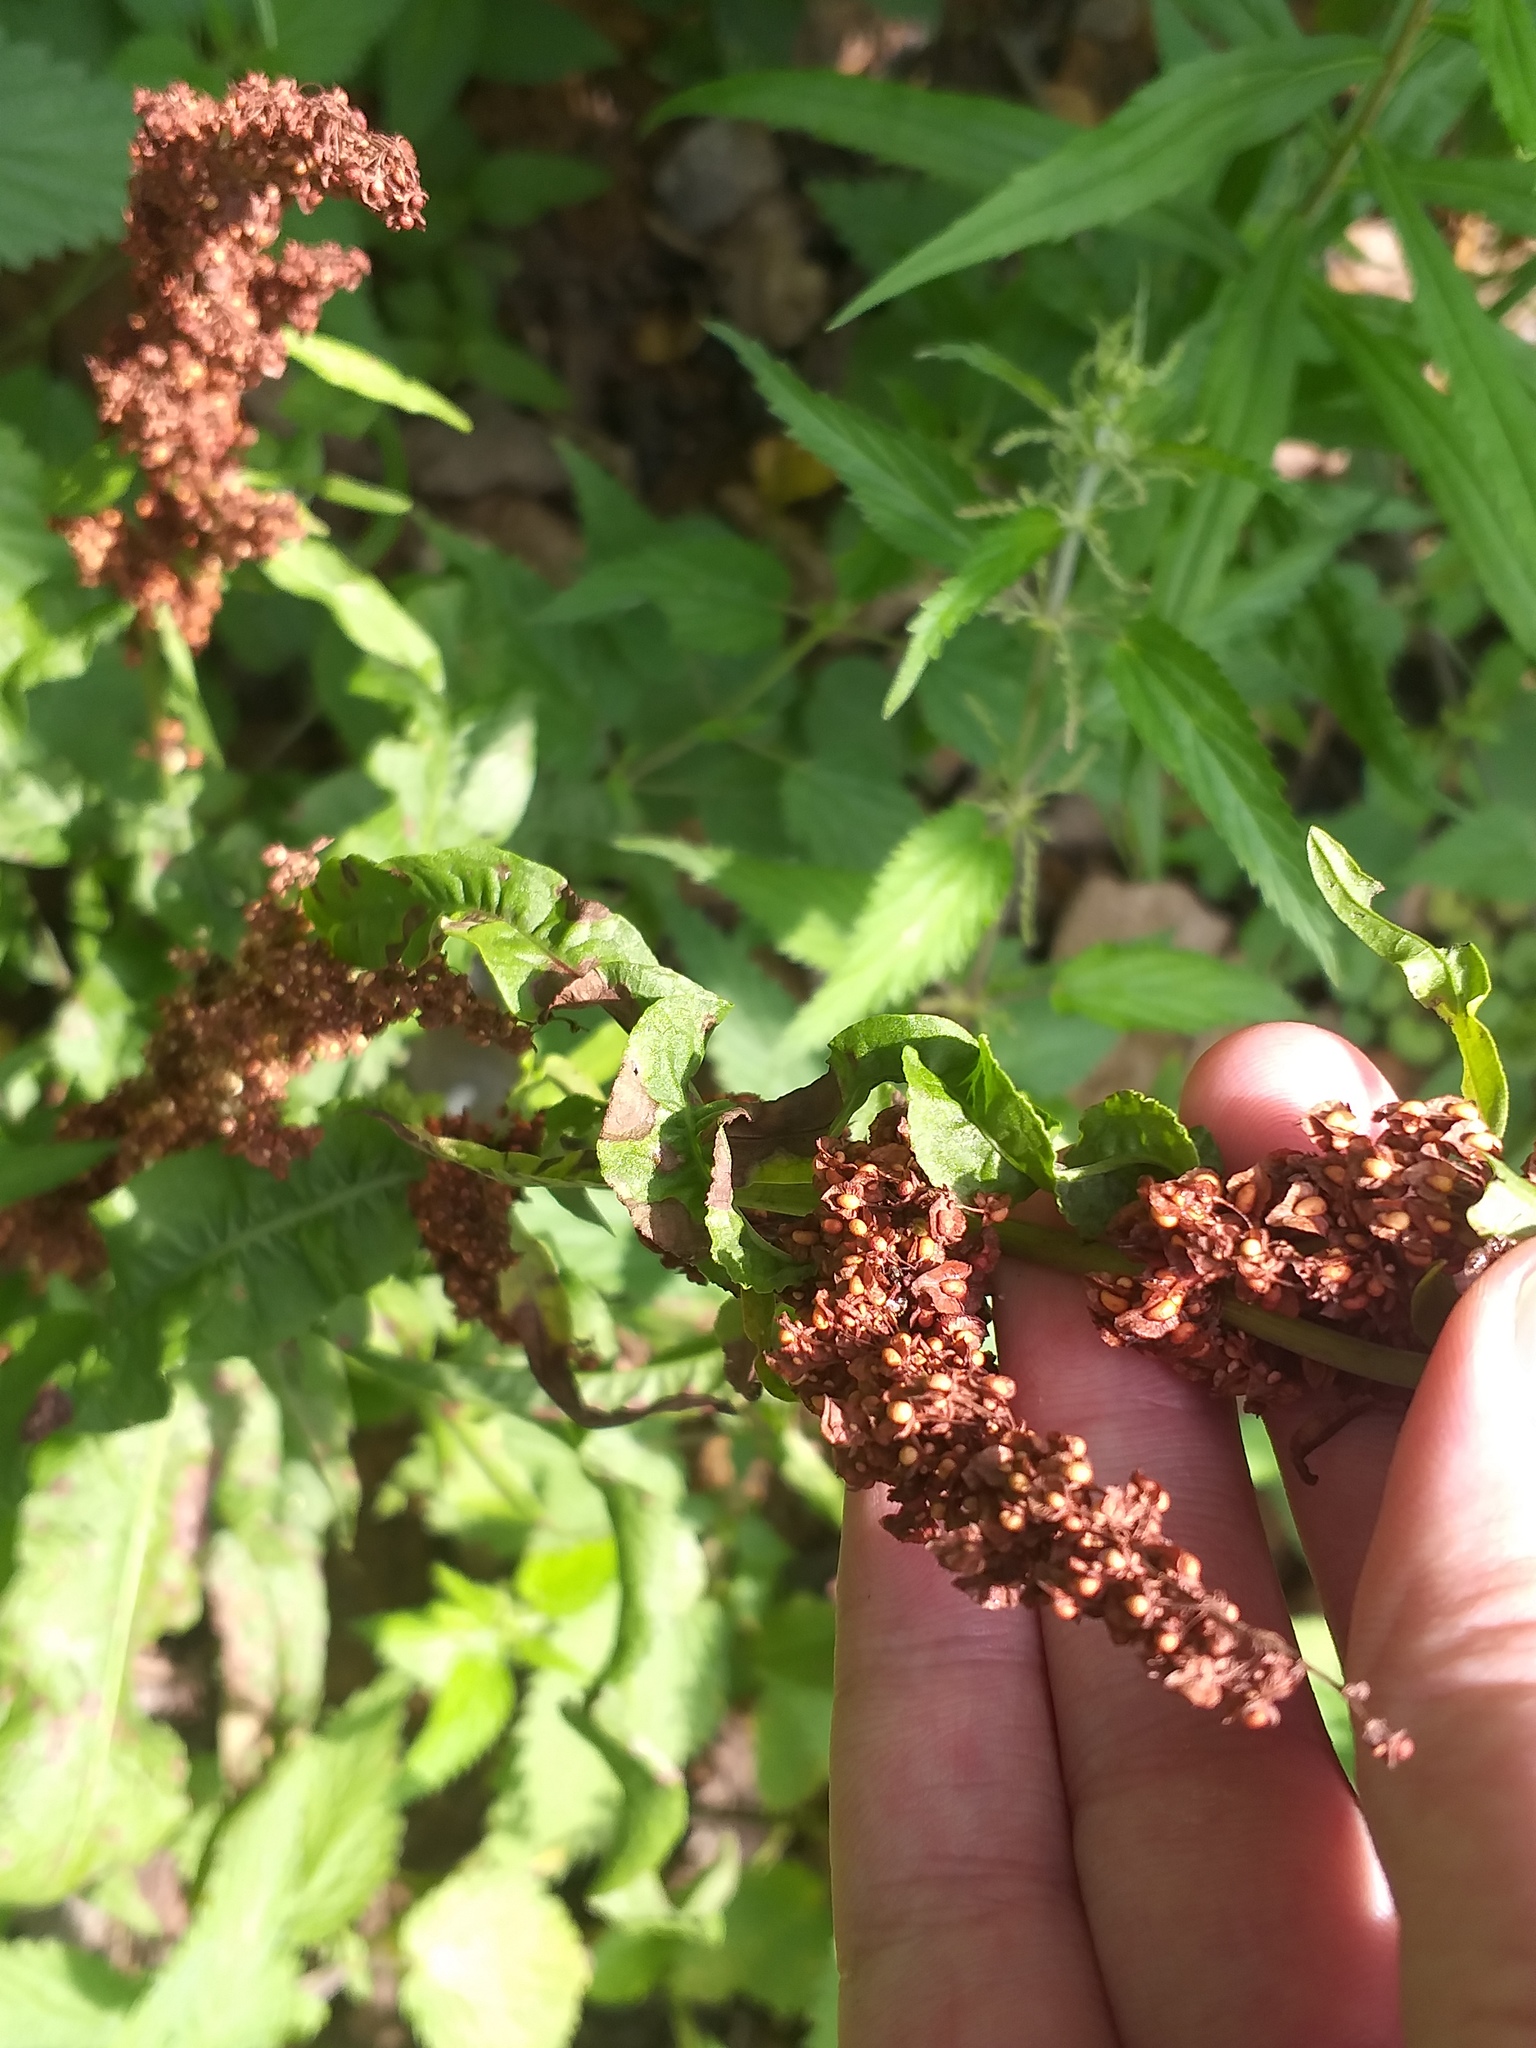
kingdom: Plantae
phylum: Tracheophyta
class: Magnoliopsida
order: Caryophyllales
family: Polygonaceae
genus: Rumex
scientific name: Rumex crispus
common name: Curled dock
